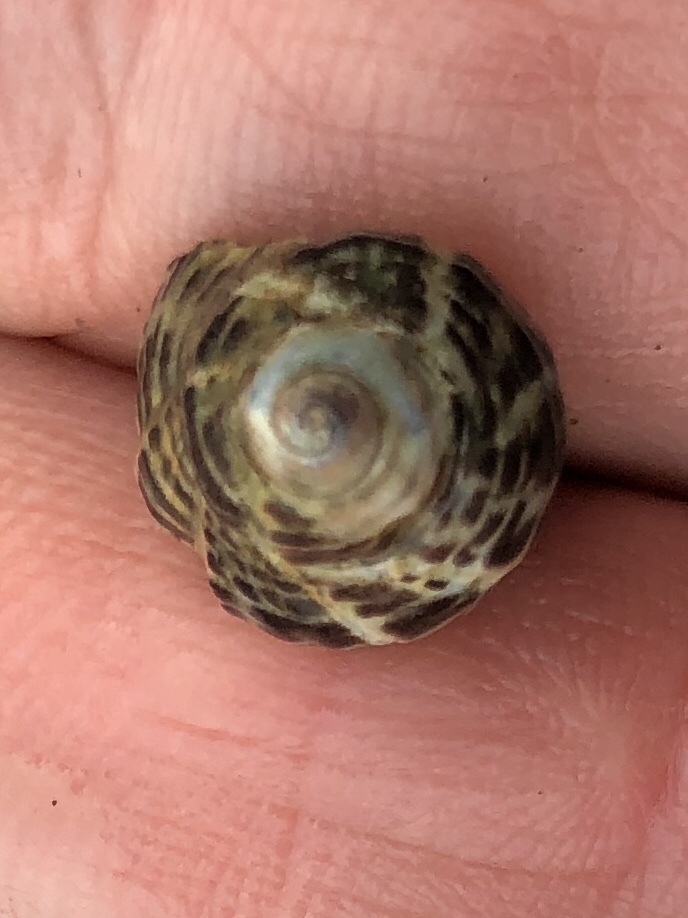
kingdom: Animalia
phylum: Mollusca
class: Gastropoda
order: Neogastropoda
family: Muricidae
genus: Acanthinucella
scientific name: Acanthinucella spirata
